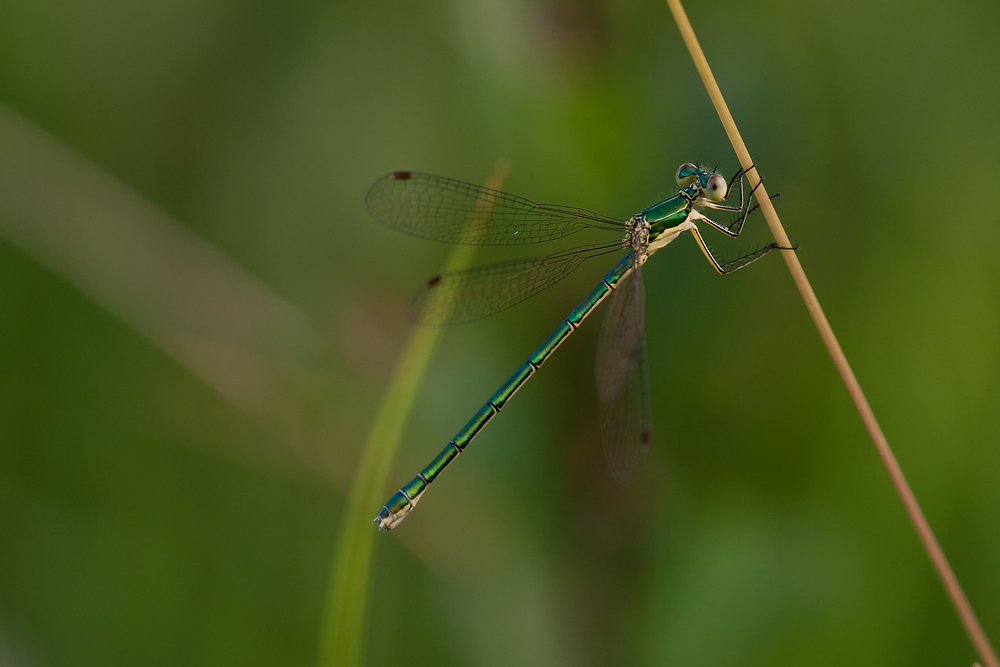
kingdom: Animalia
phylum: Arthropoda
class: Insecta
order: Odonata
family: Lestidae
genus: Lestes
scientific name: Lestes virens
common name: Small emerald spreadwing
